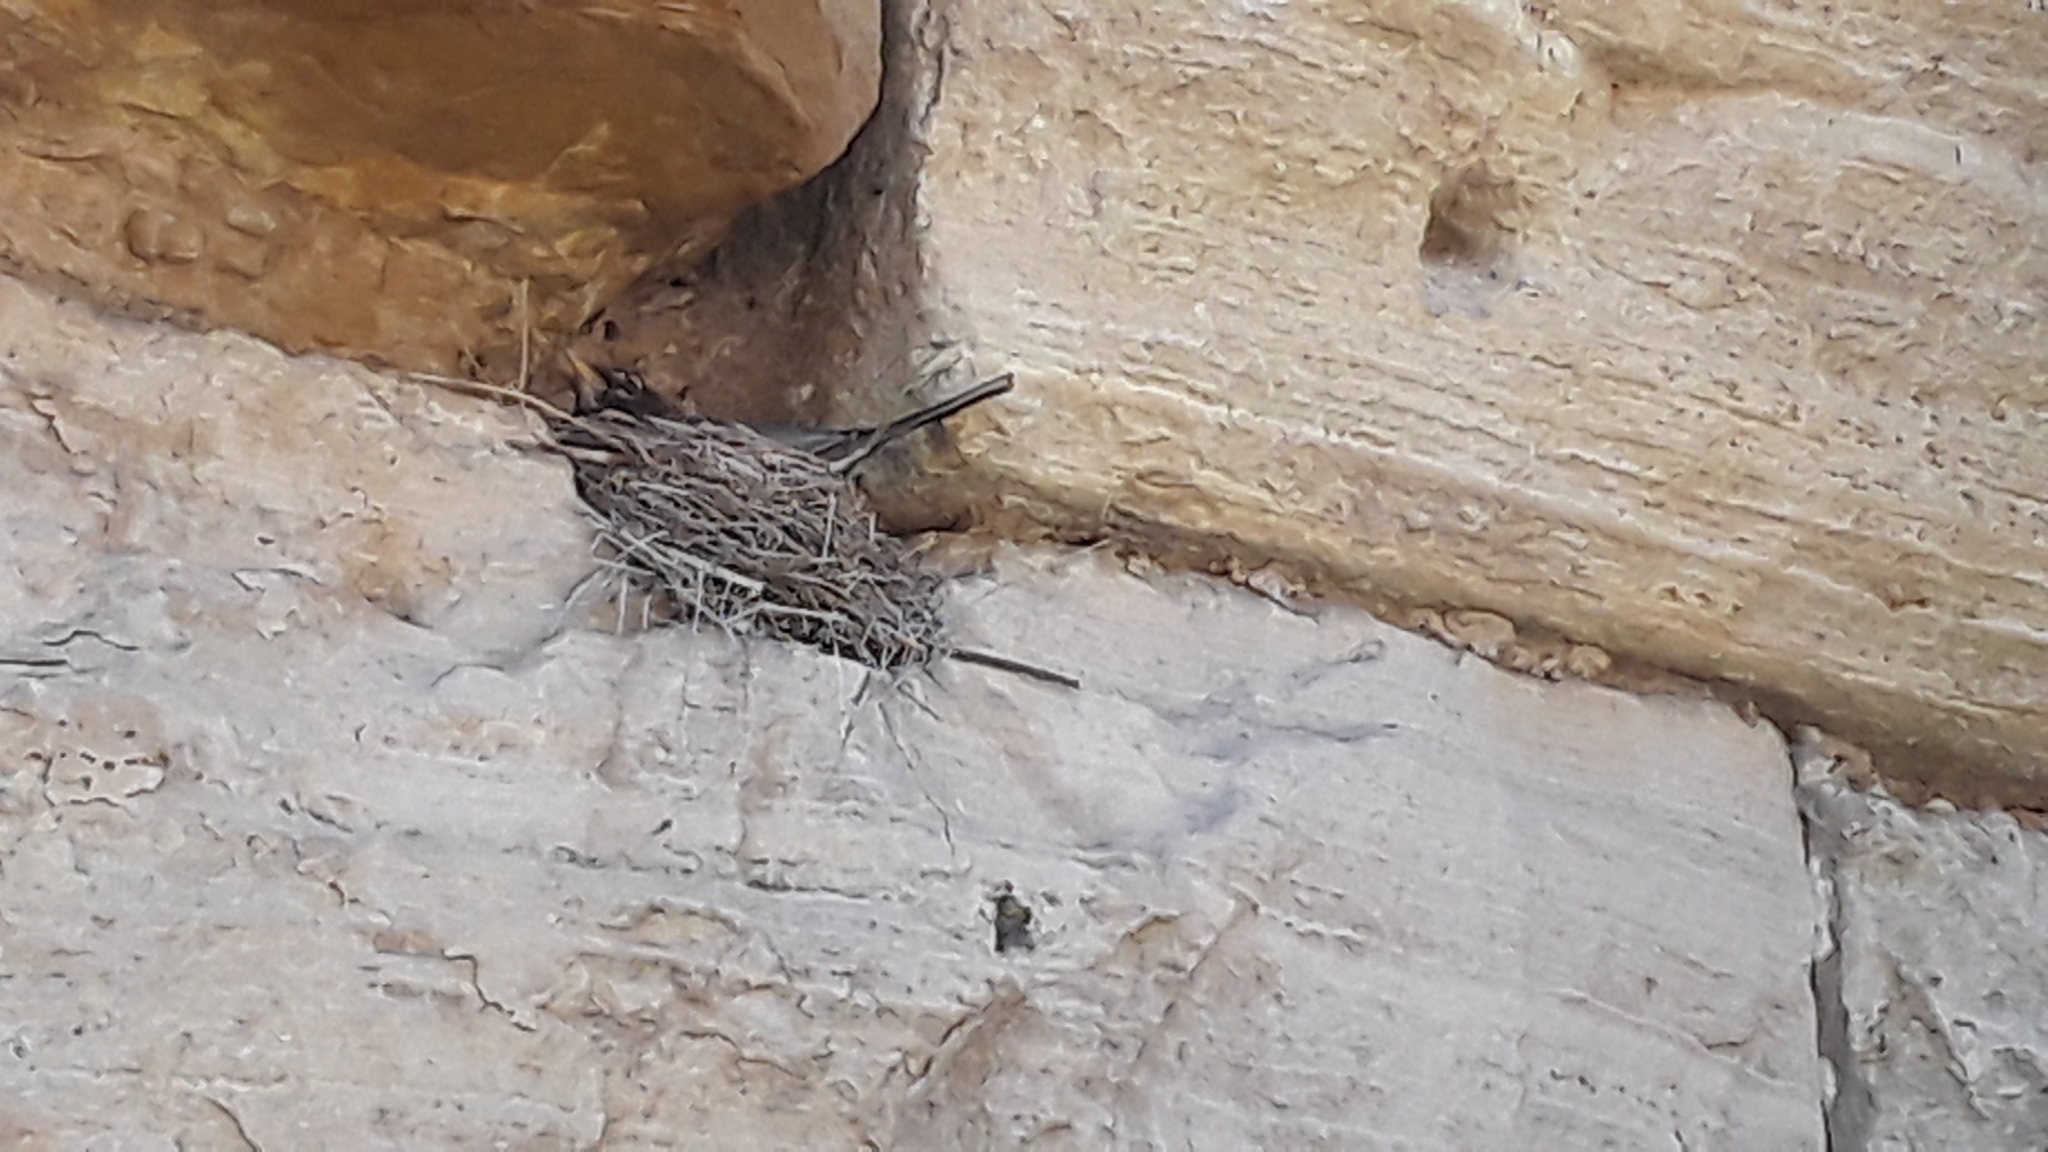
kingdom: Animalia
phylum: Chordata
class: Aves
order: Passeriformes
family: Turdidae
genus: Turdus
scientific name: Turdus migratorius
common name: American robin
